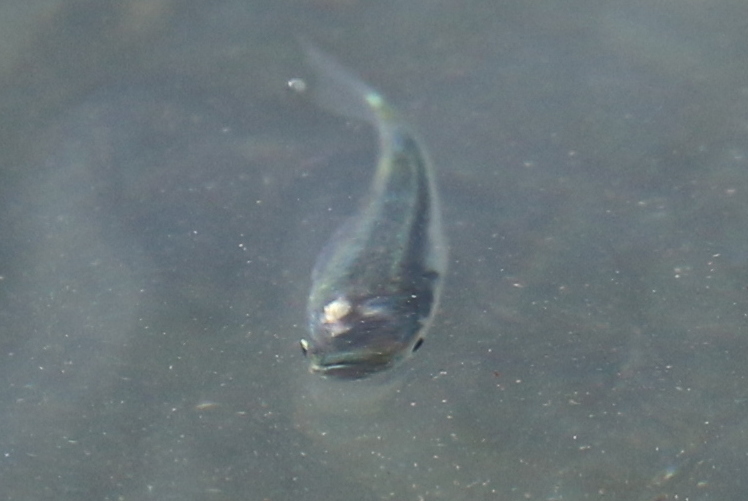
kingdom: Animalia
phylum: Chordata
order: Cyprinodontiformes
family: Poeciliidae
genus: Gambusia
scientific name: Gambusia affinis
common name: Mosquitofish
